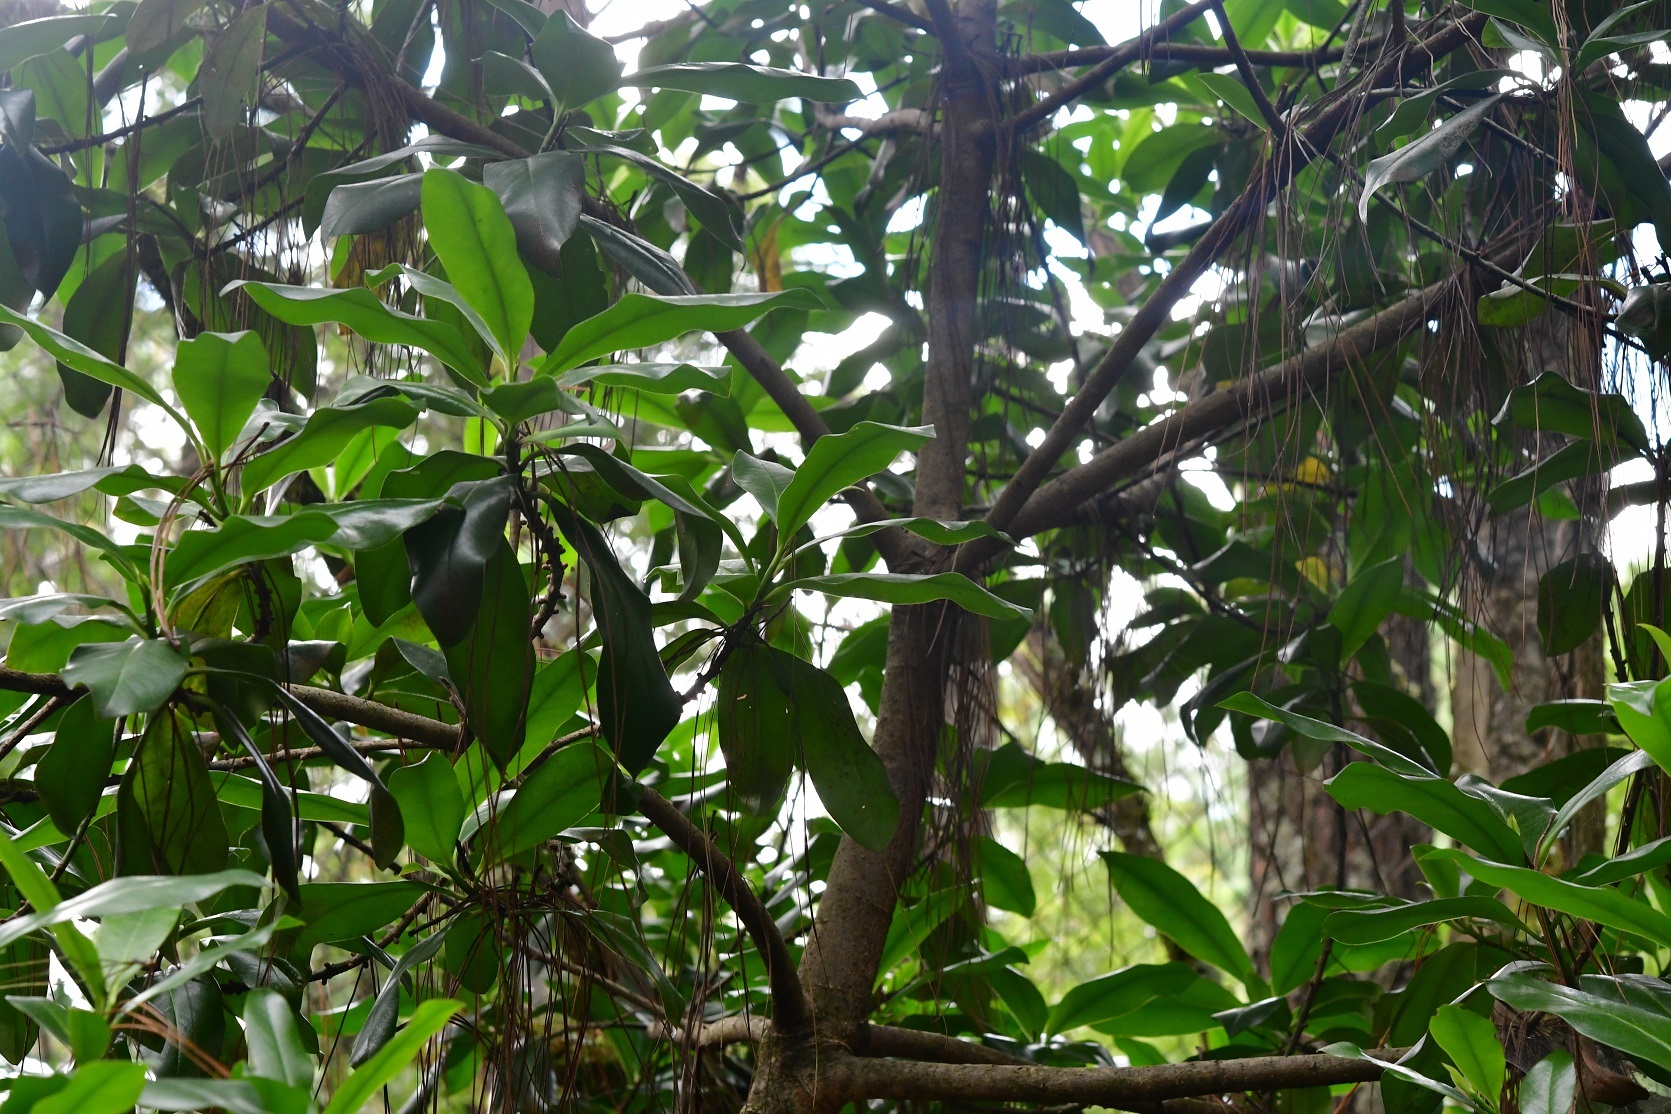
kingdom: Plantae
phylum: Tracheophyta
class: Magnoliopsida
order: Ericales
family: Primulaceae
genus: Myrsine
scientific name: Myrsine juergensenii
